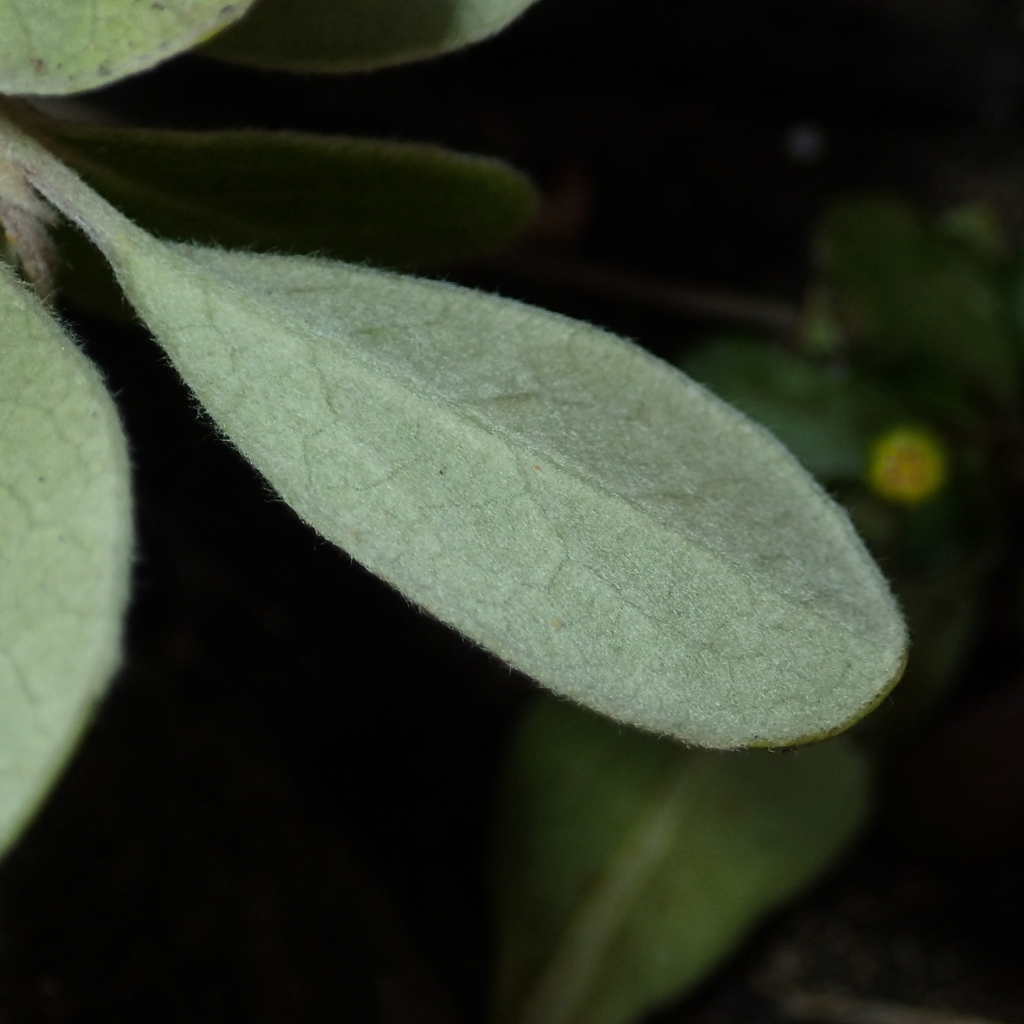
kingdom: Plantae
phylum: Tracheophyta
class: Magnoliopsida
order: Apiales
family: Pittosporaceae
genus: Pittosporum
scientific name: Pittosporum crassifolium
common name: Karo
